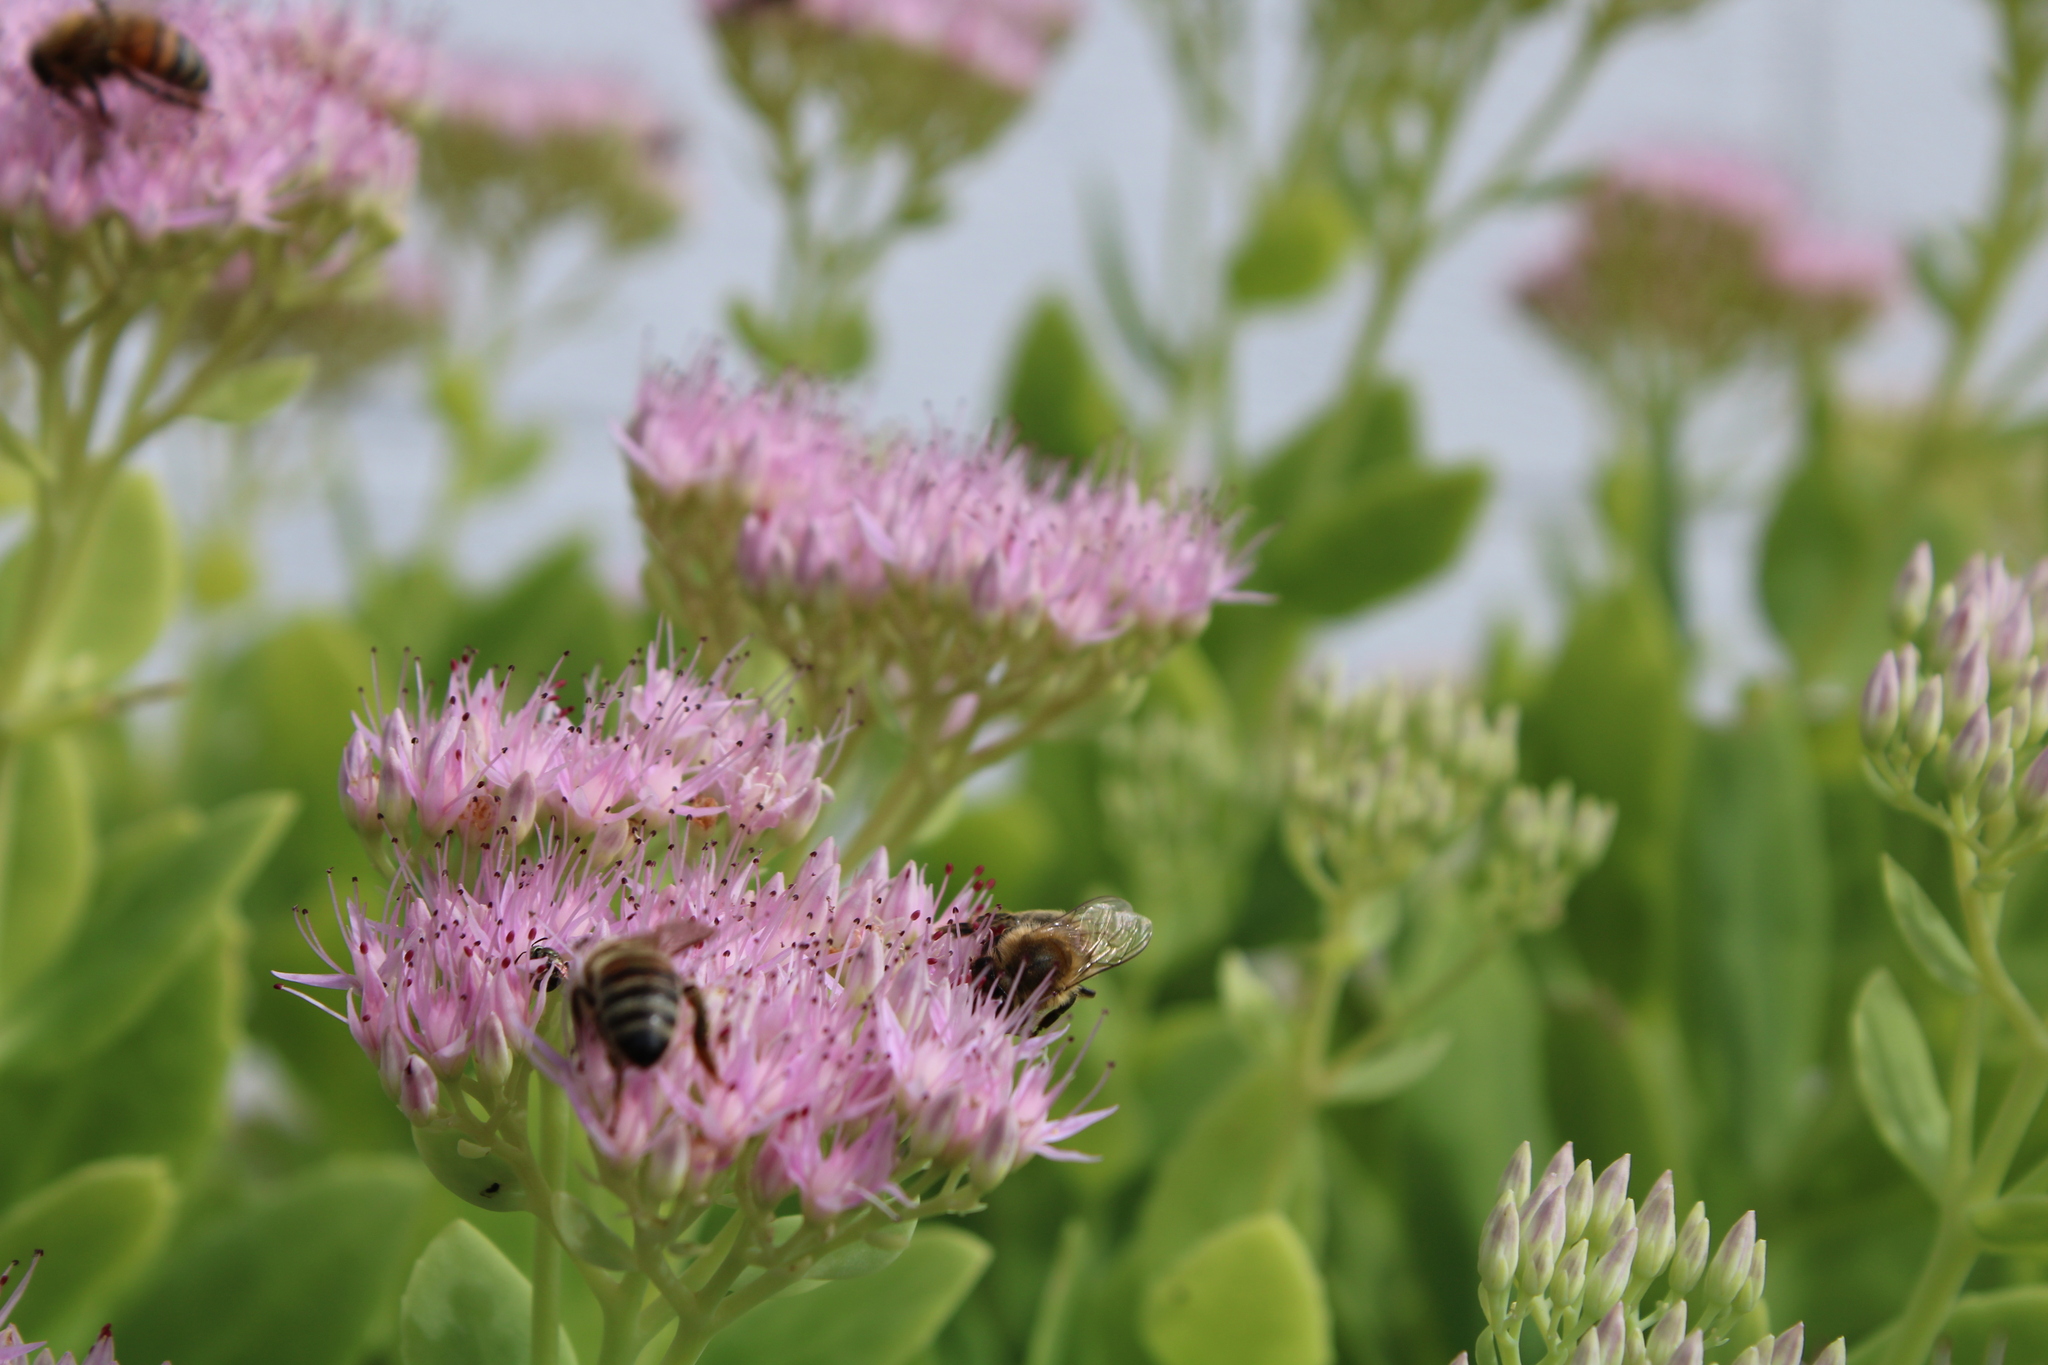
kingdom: Animalia
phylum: Arthropoda
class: Insecta
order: Hymenoptera
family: Apidae
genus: Apis
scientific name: Apis mellifera
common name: Honey bee
